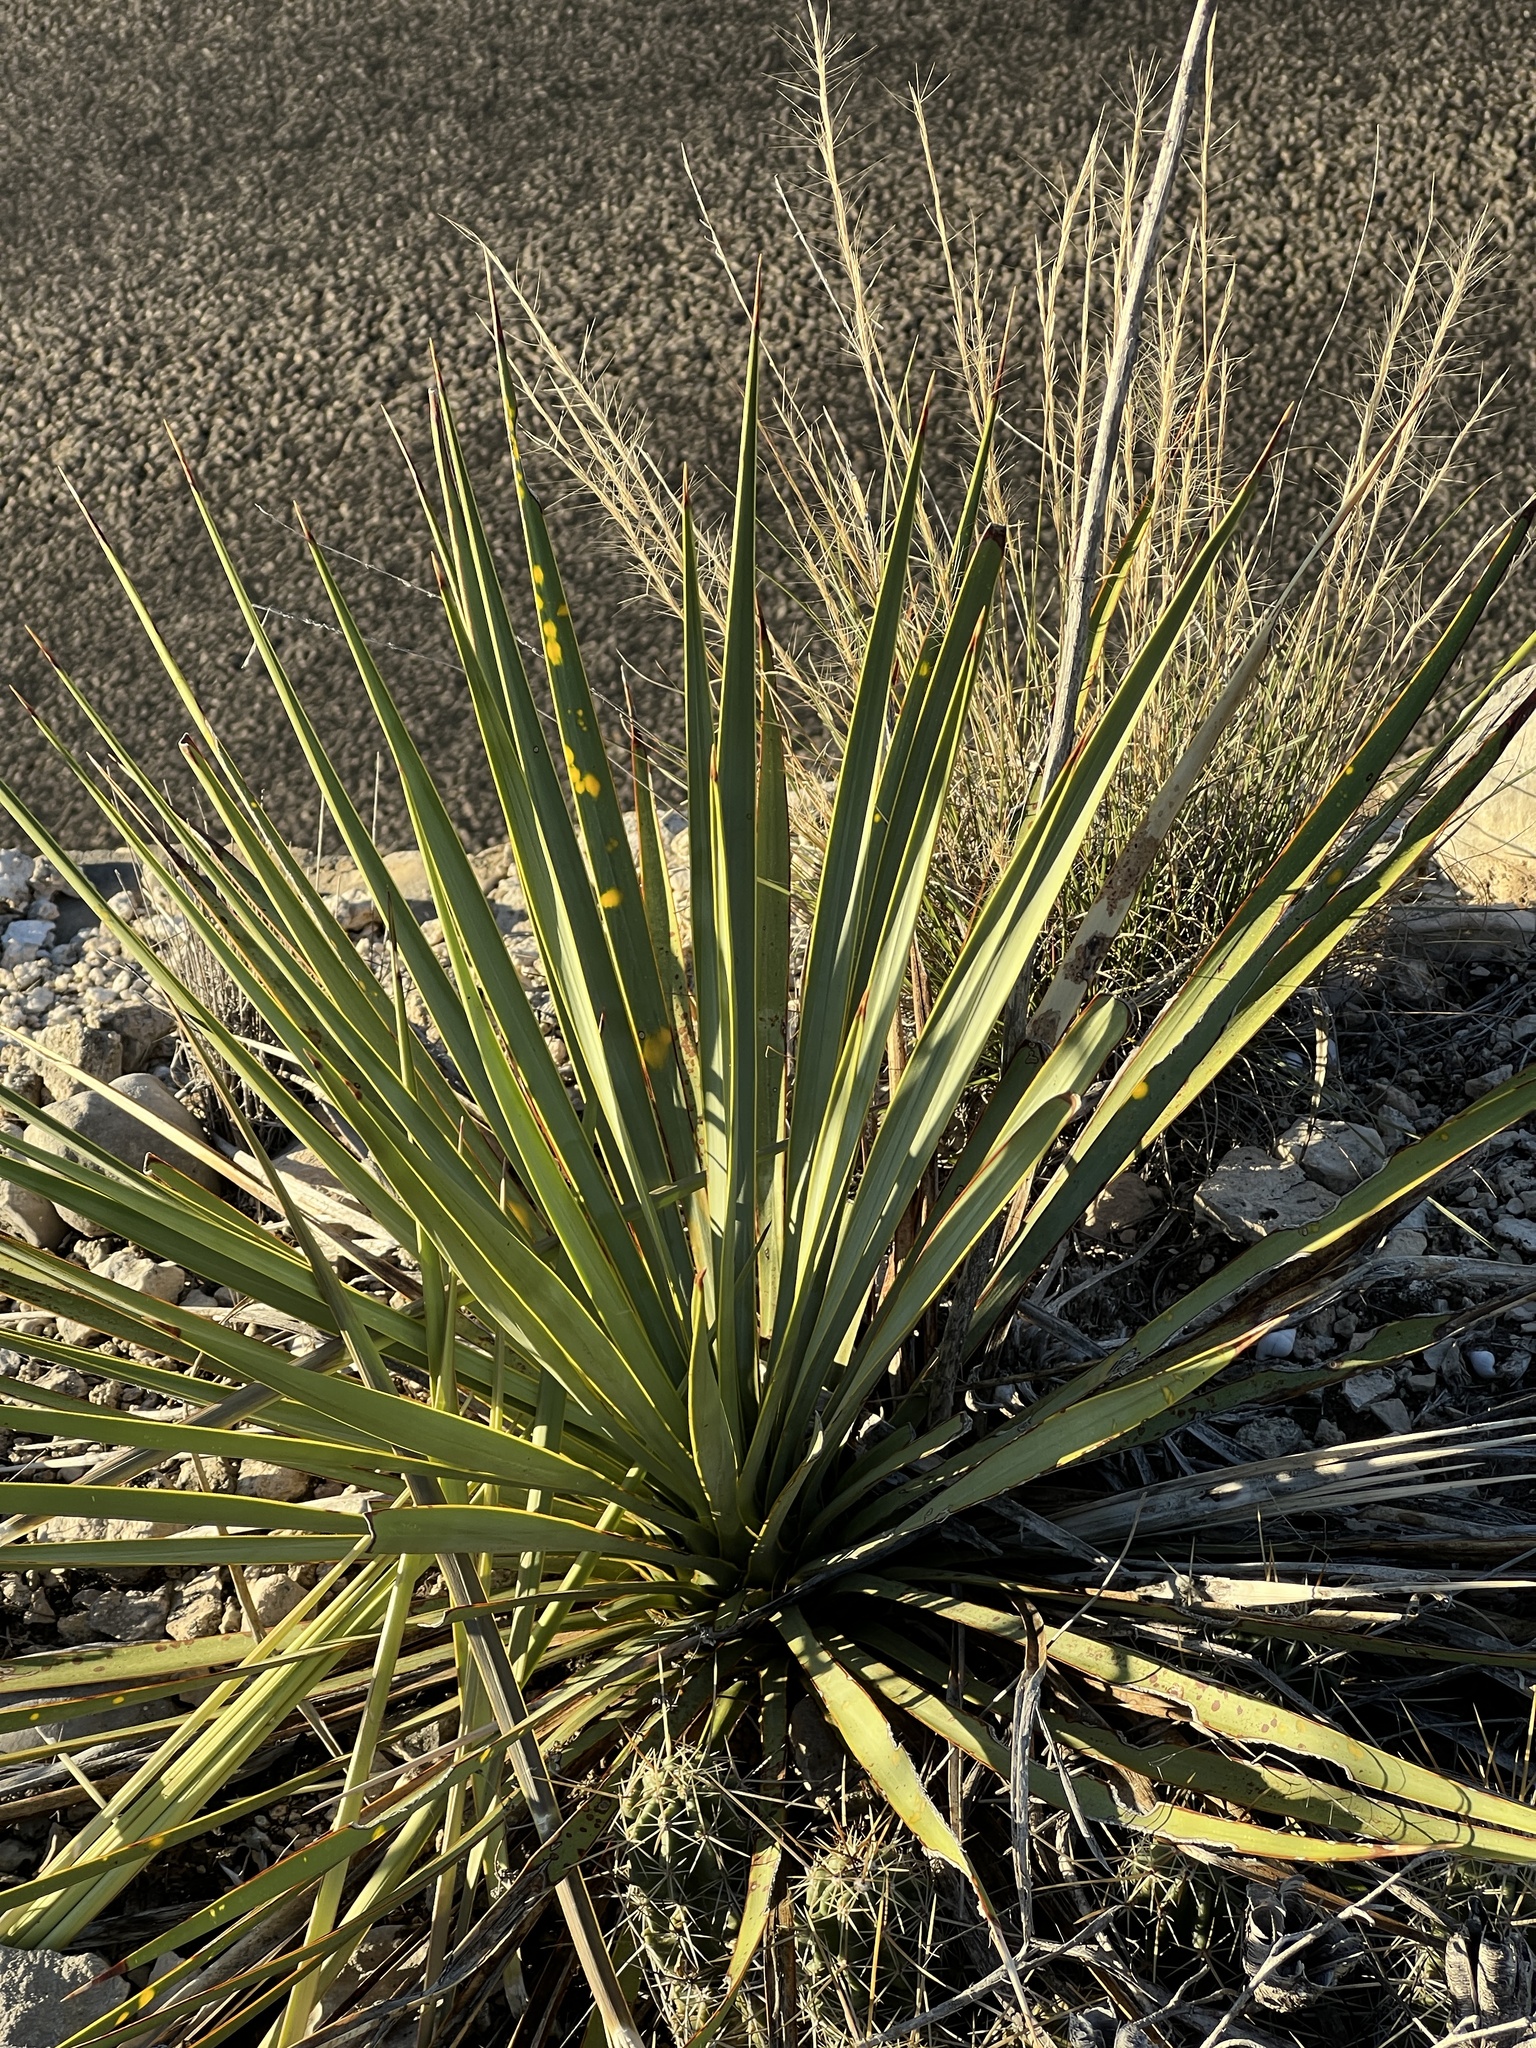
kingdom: Plantae
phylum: Tracheophyta
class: Liliopsida
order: Asparagales
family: Asparagaceae
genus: Yucca
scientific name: Yucca reverchonii
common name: San angelo yucca
